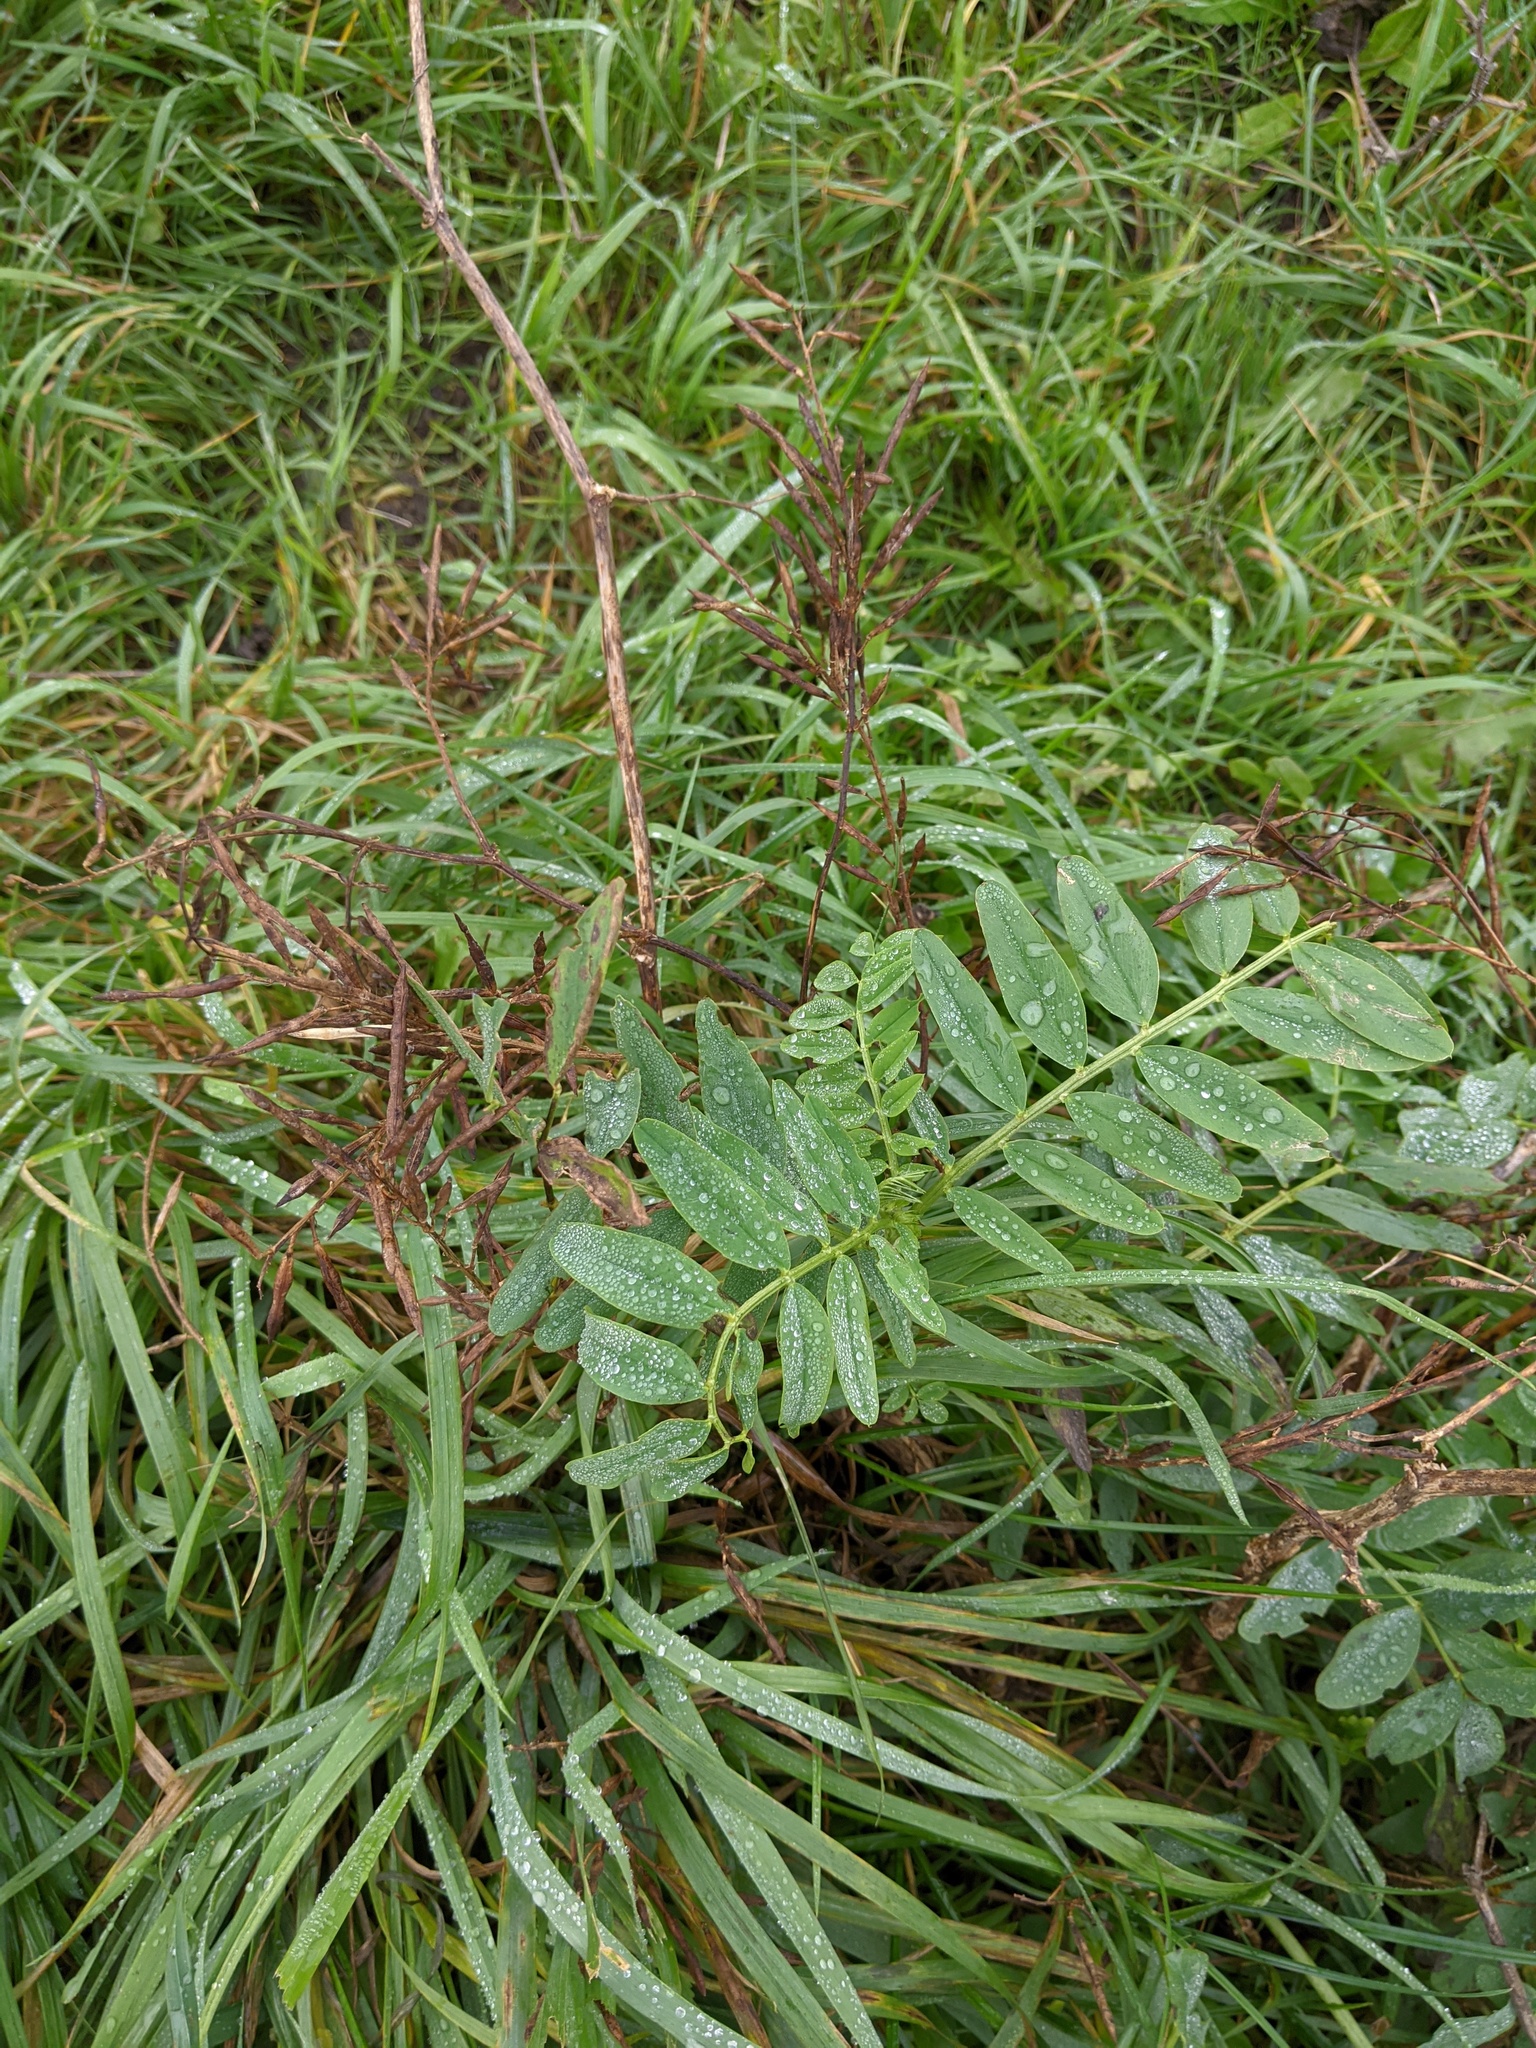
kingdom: Plantae
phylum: Tracheophyta
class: Magnoliopsida
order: Fabales
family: Fabaceae
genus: Galega
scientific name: Galega officinalis
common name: Goat's-rue
